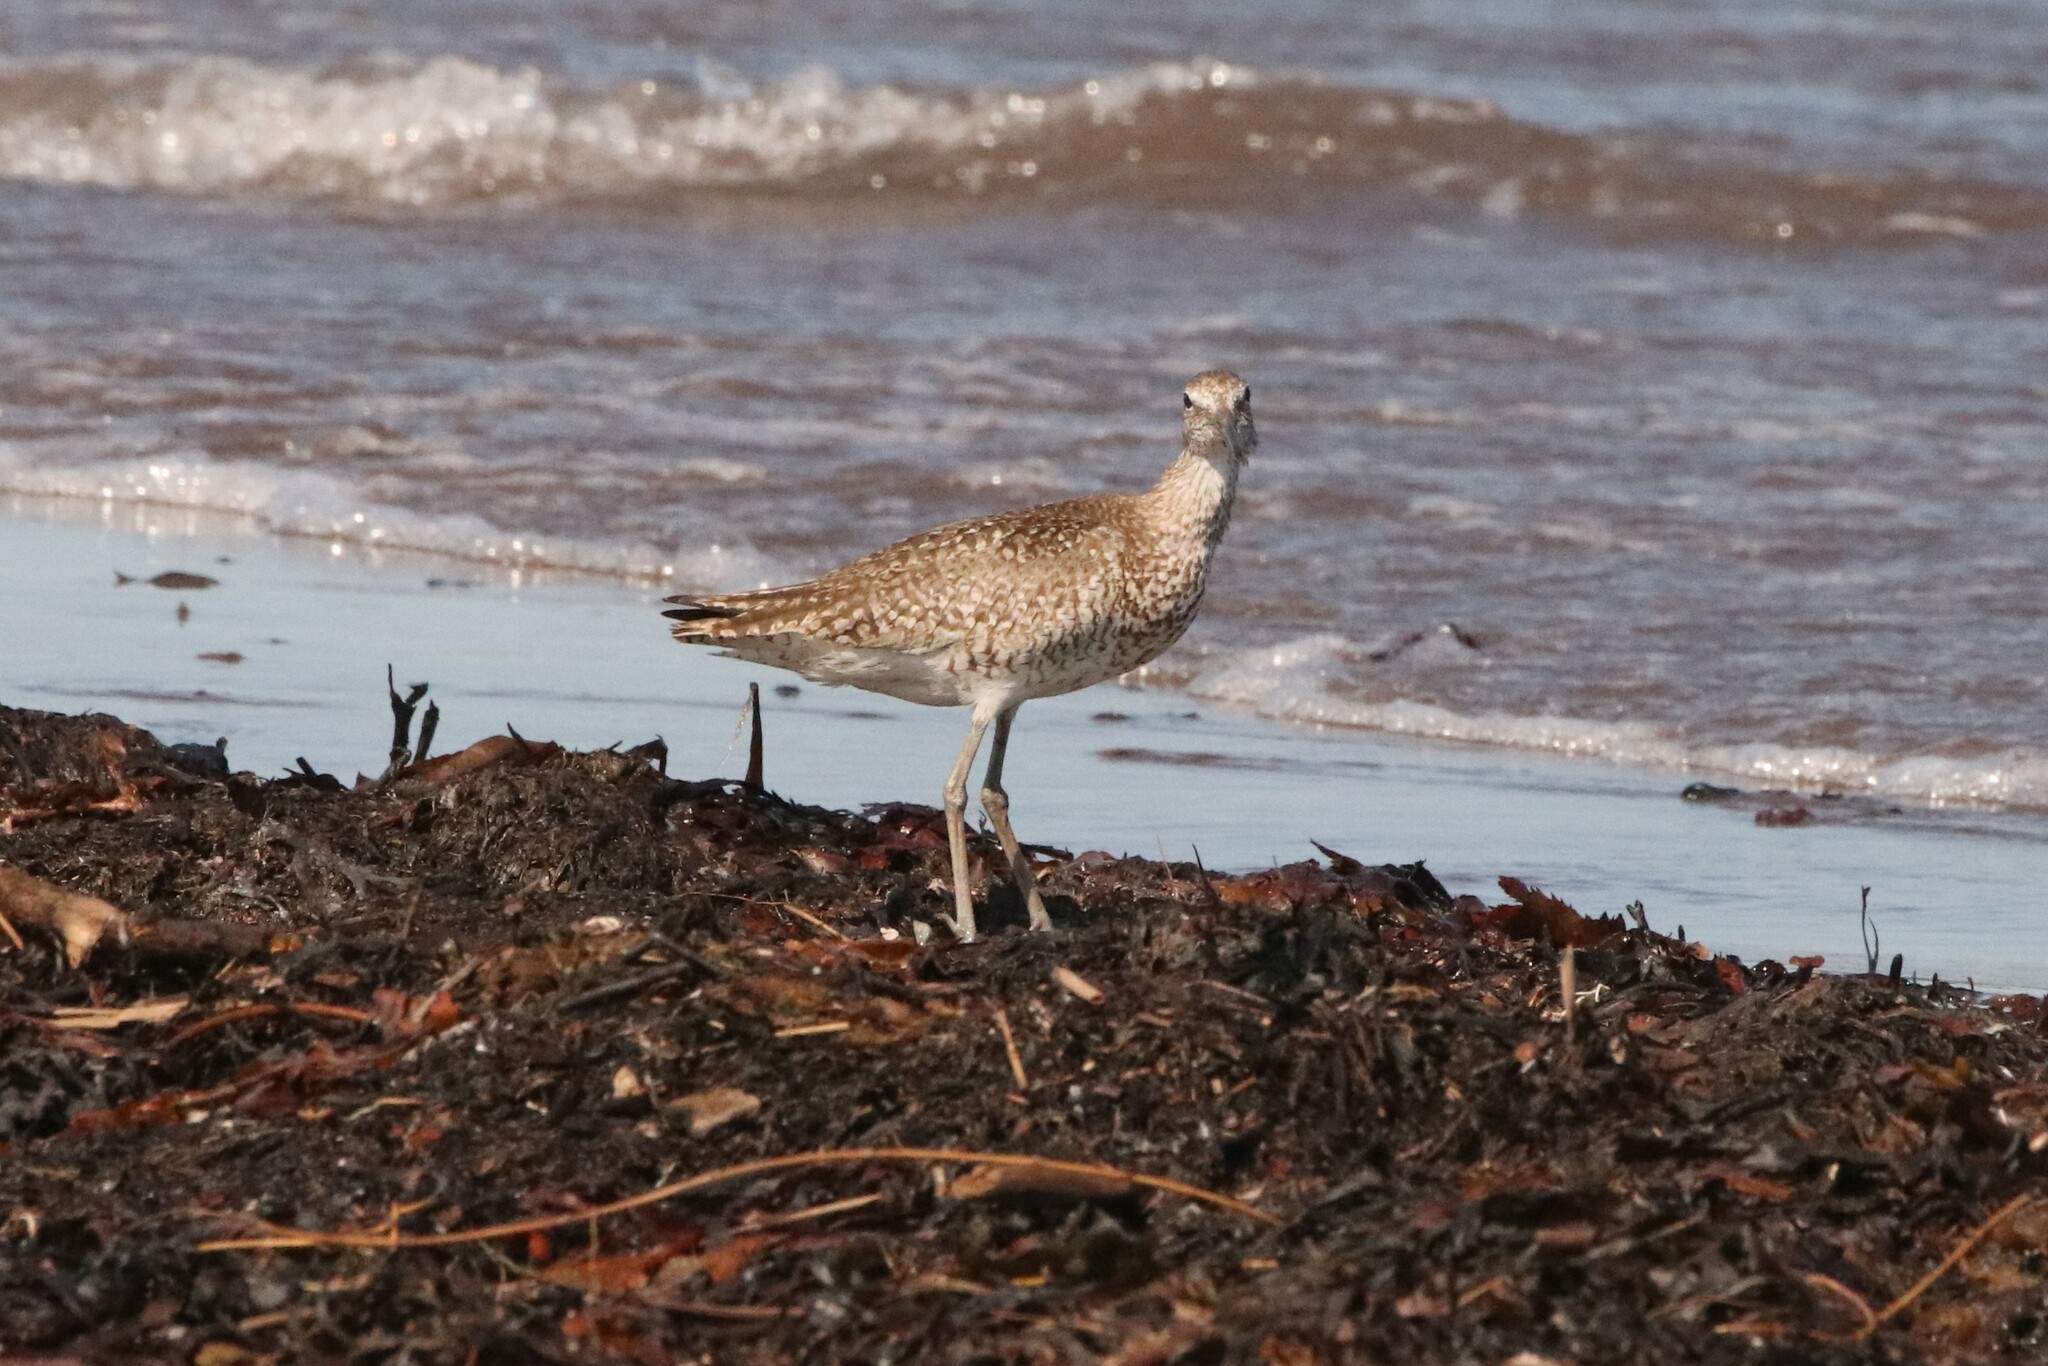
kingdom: Animalia
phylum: Chordata
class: Aves
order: Charadriiformes
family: Scolopacidae
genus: Tringa
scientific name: Tringa semipalmata
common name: Willet
